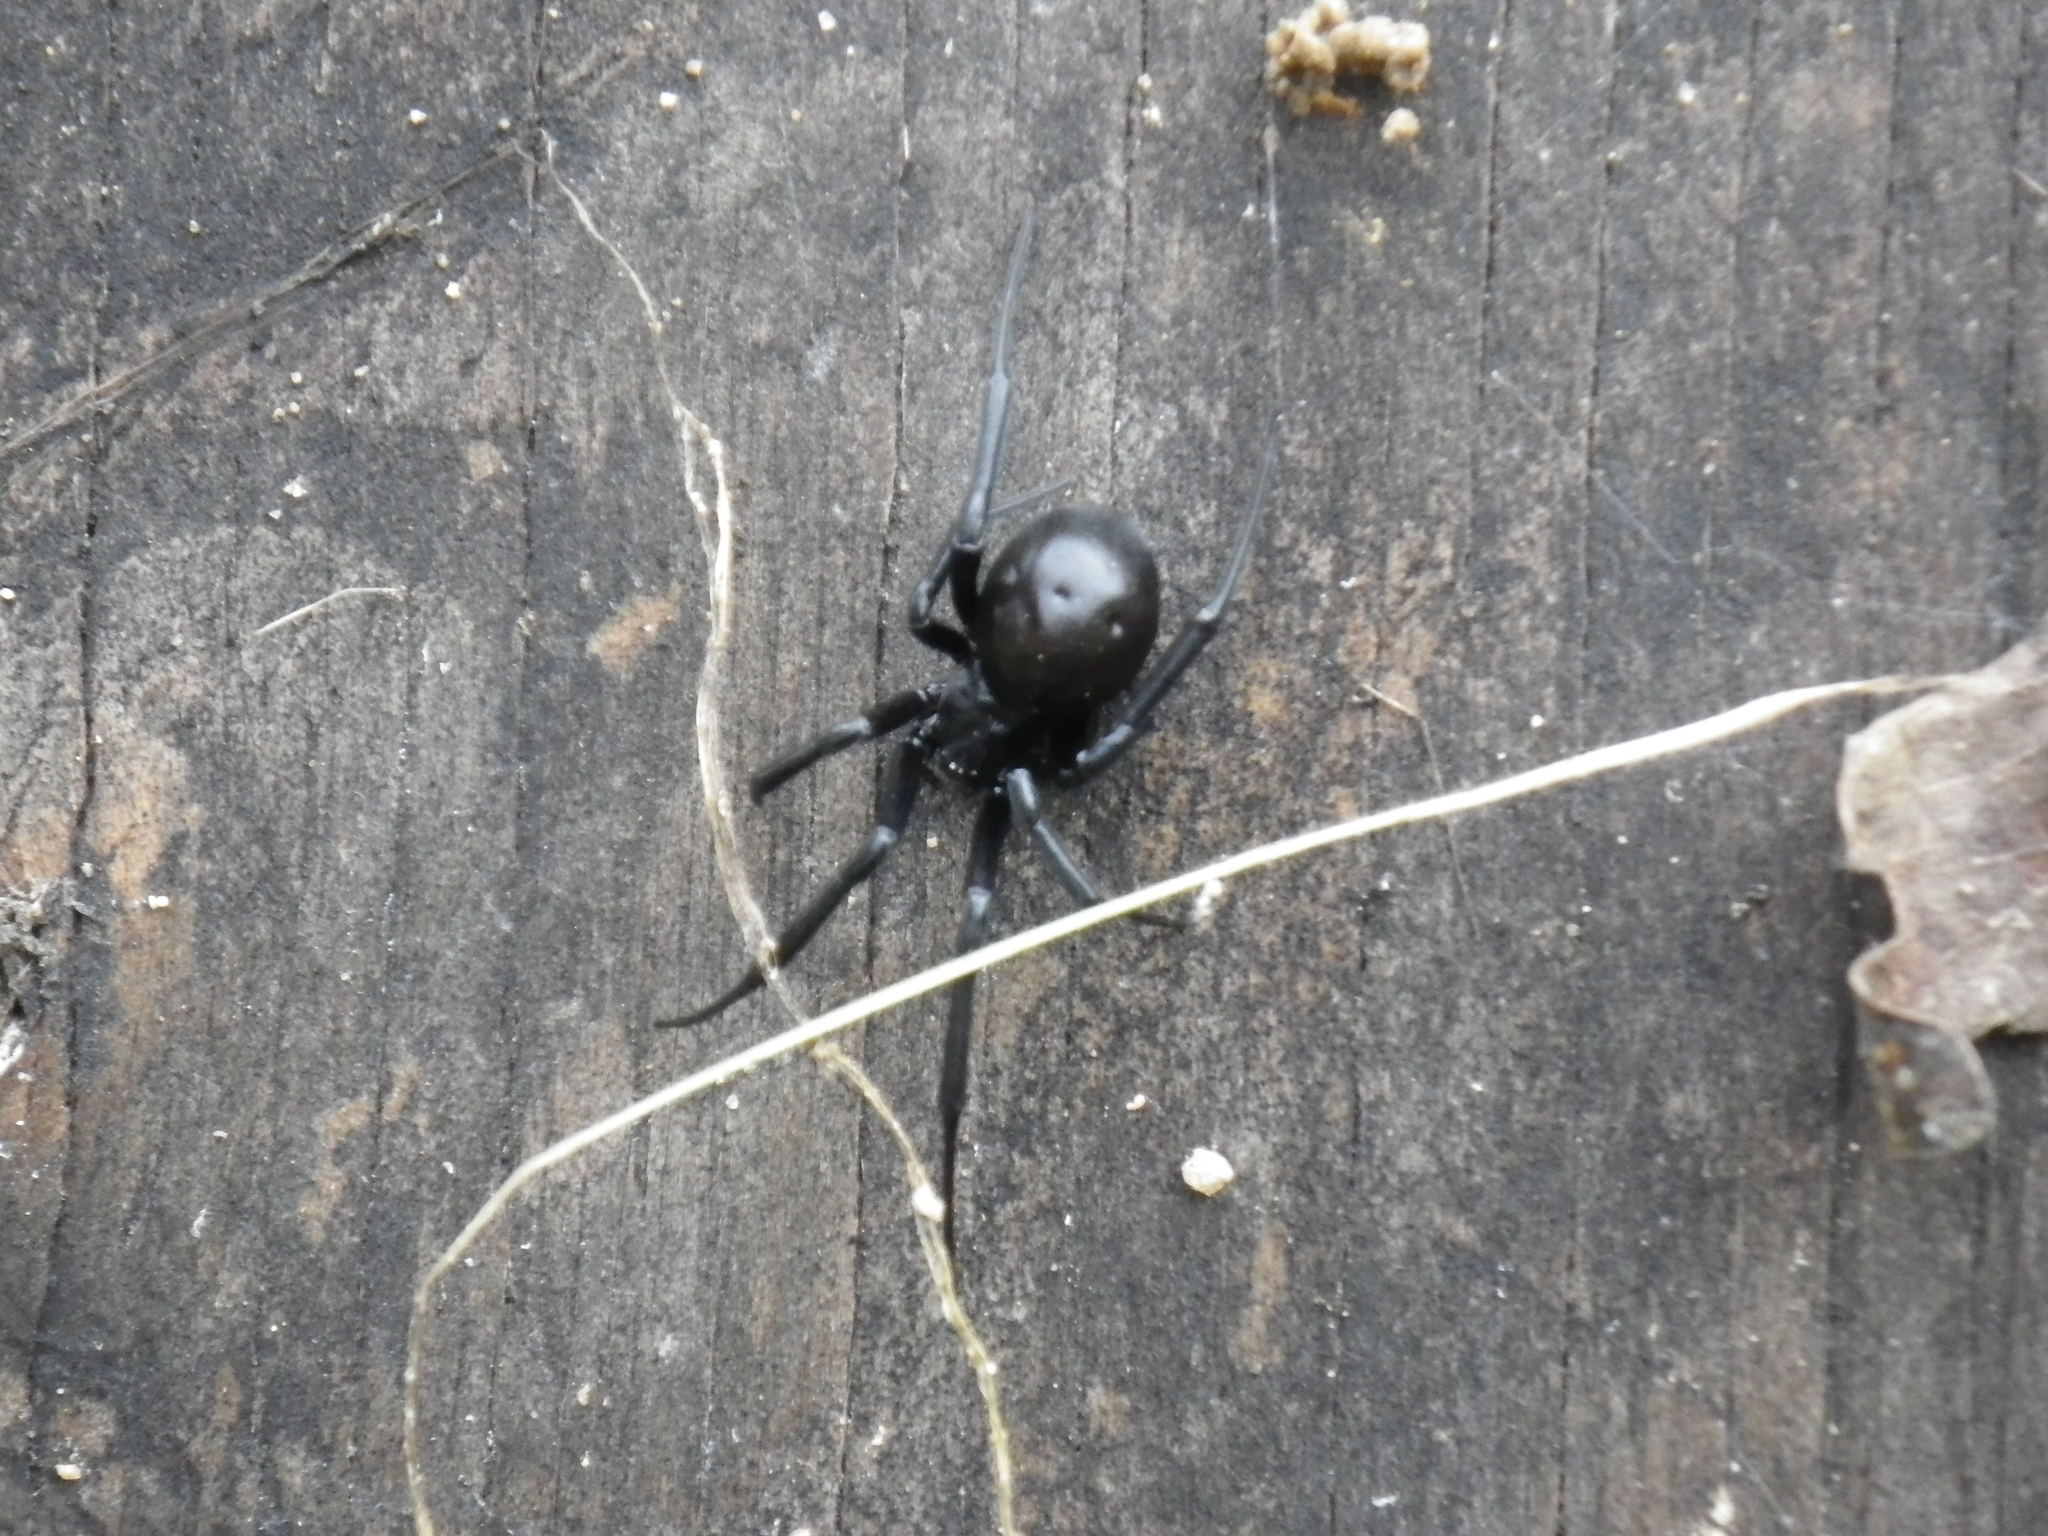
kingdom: Animalia
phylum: Arthropoda
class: Arachnida
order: Araneae
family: Theridiidae
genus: Latrodectus
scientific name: Latrodectus hesperus
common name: Western black widow
